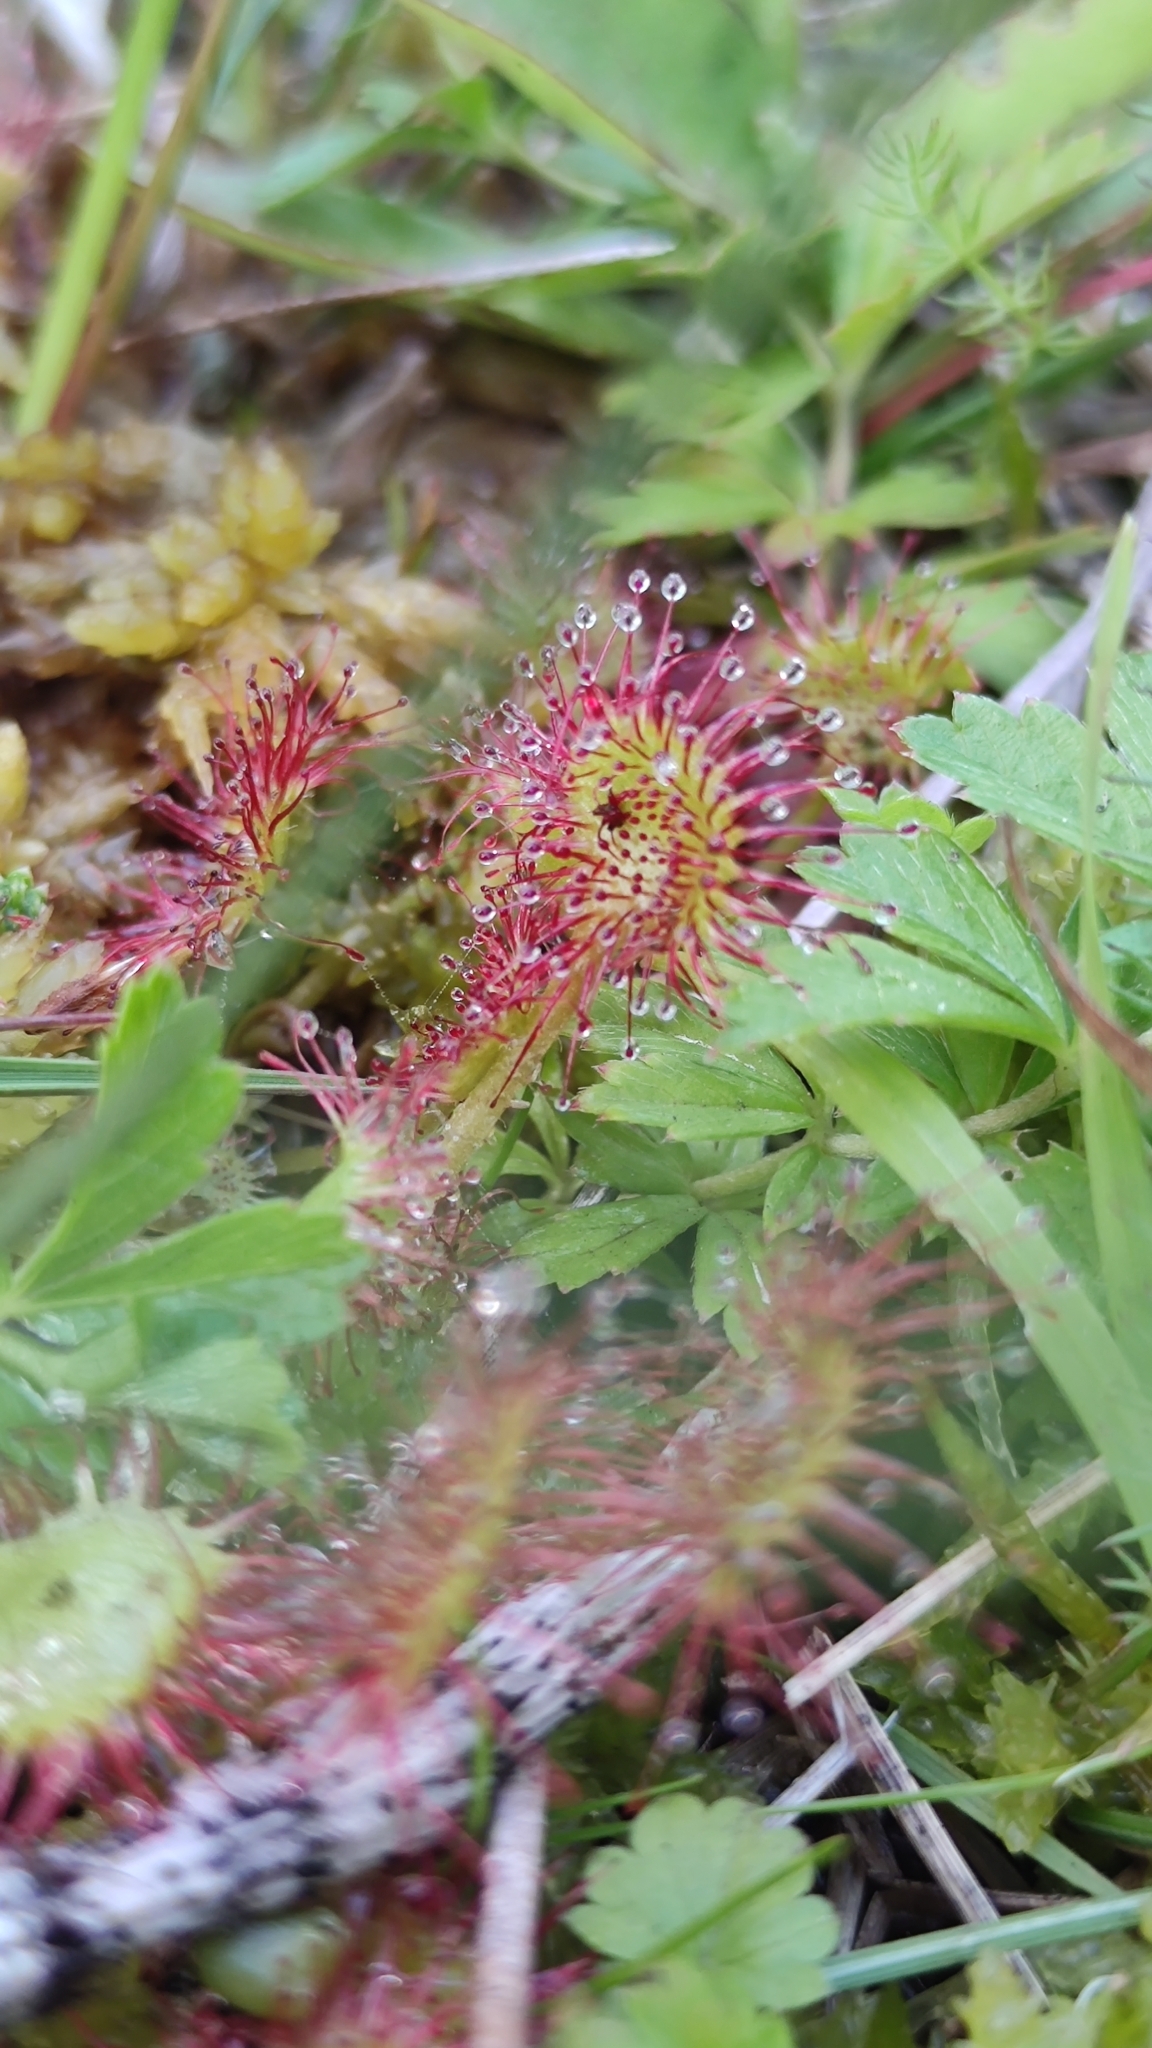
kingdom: Plantae
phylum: Tracheophyta
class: Magnoliopsida
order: Caryophyllales
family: Droseraceae
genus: Drosera
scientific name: Drosera rotundifolia
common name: Round-leaved sundew
